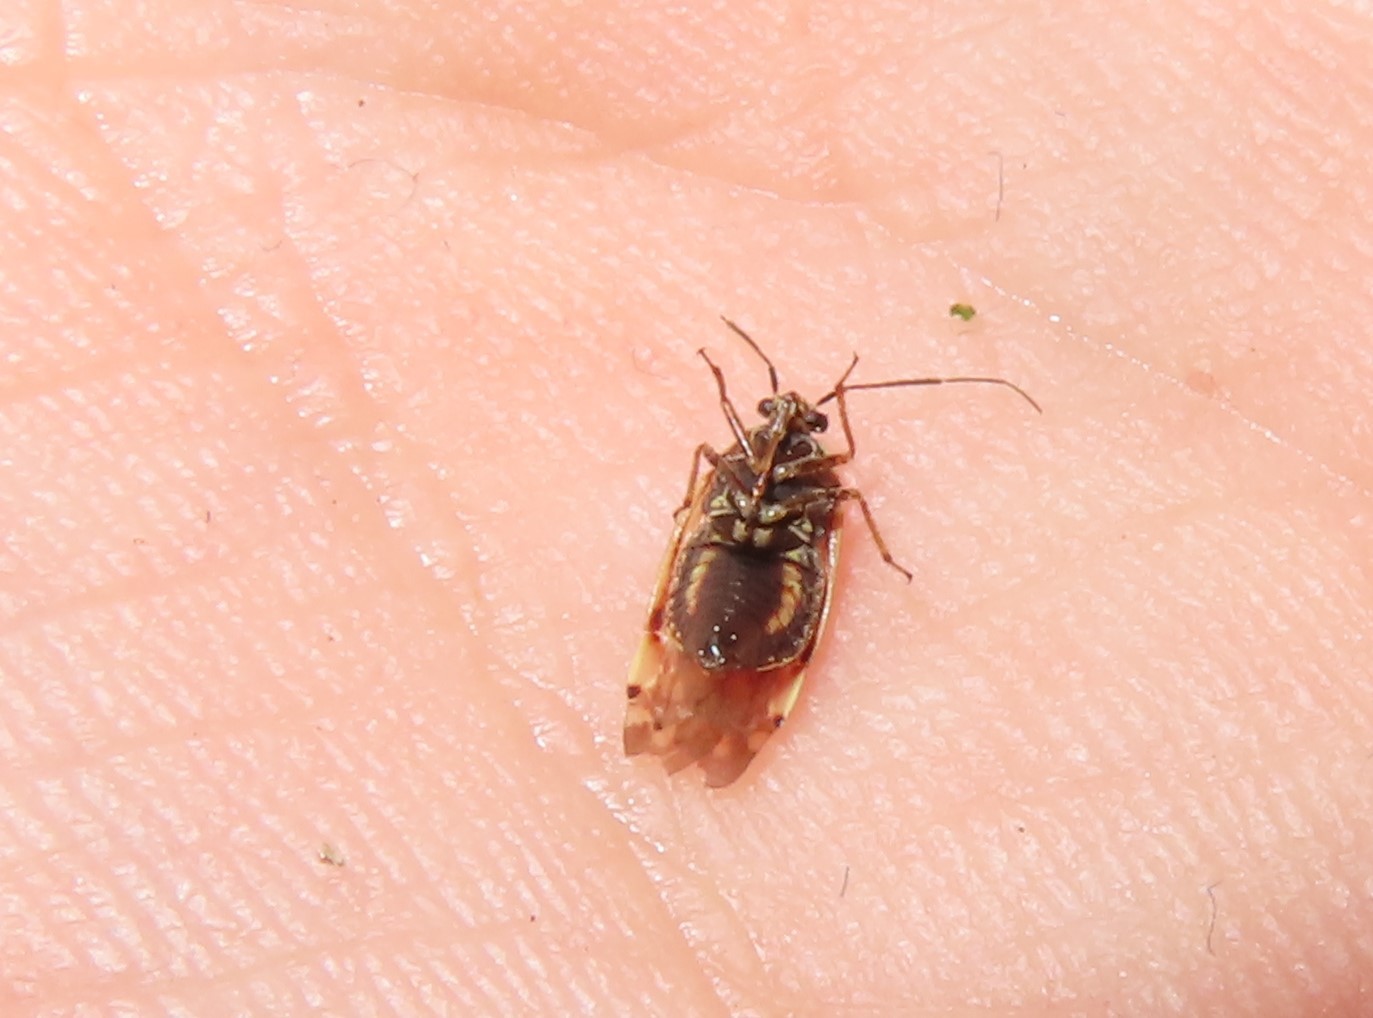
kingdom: Animalia
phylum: Arthropoda
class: Insecta
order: Hemiptera
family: Miridae
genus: Lygus
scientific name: Lygus lineolaris
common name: North american tarnished plant bug
